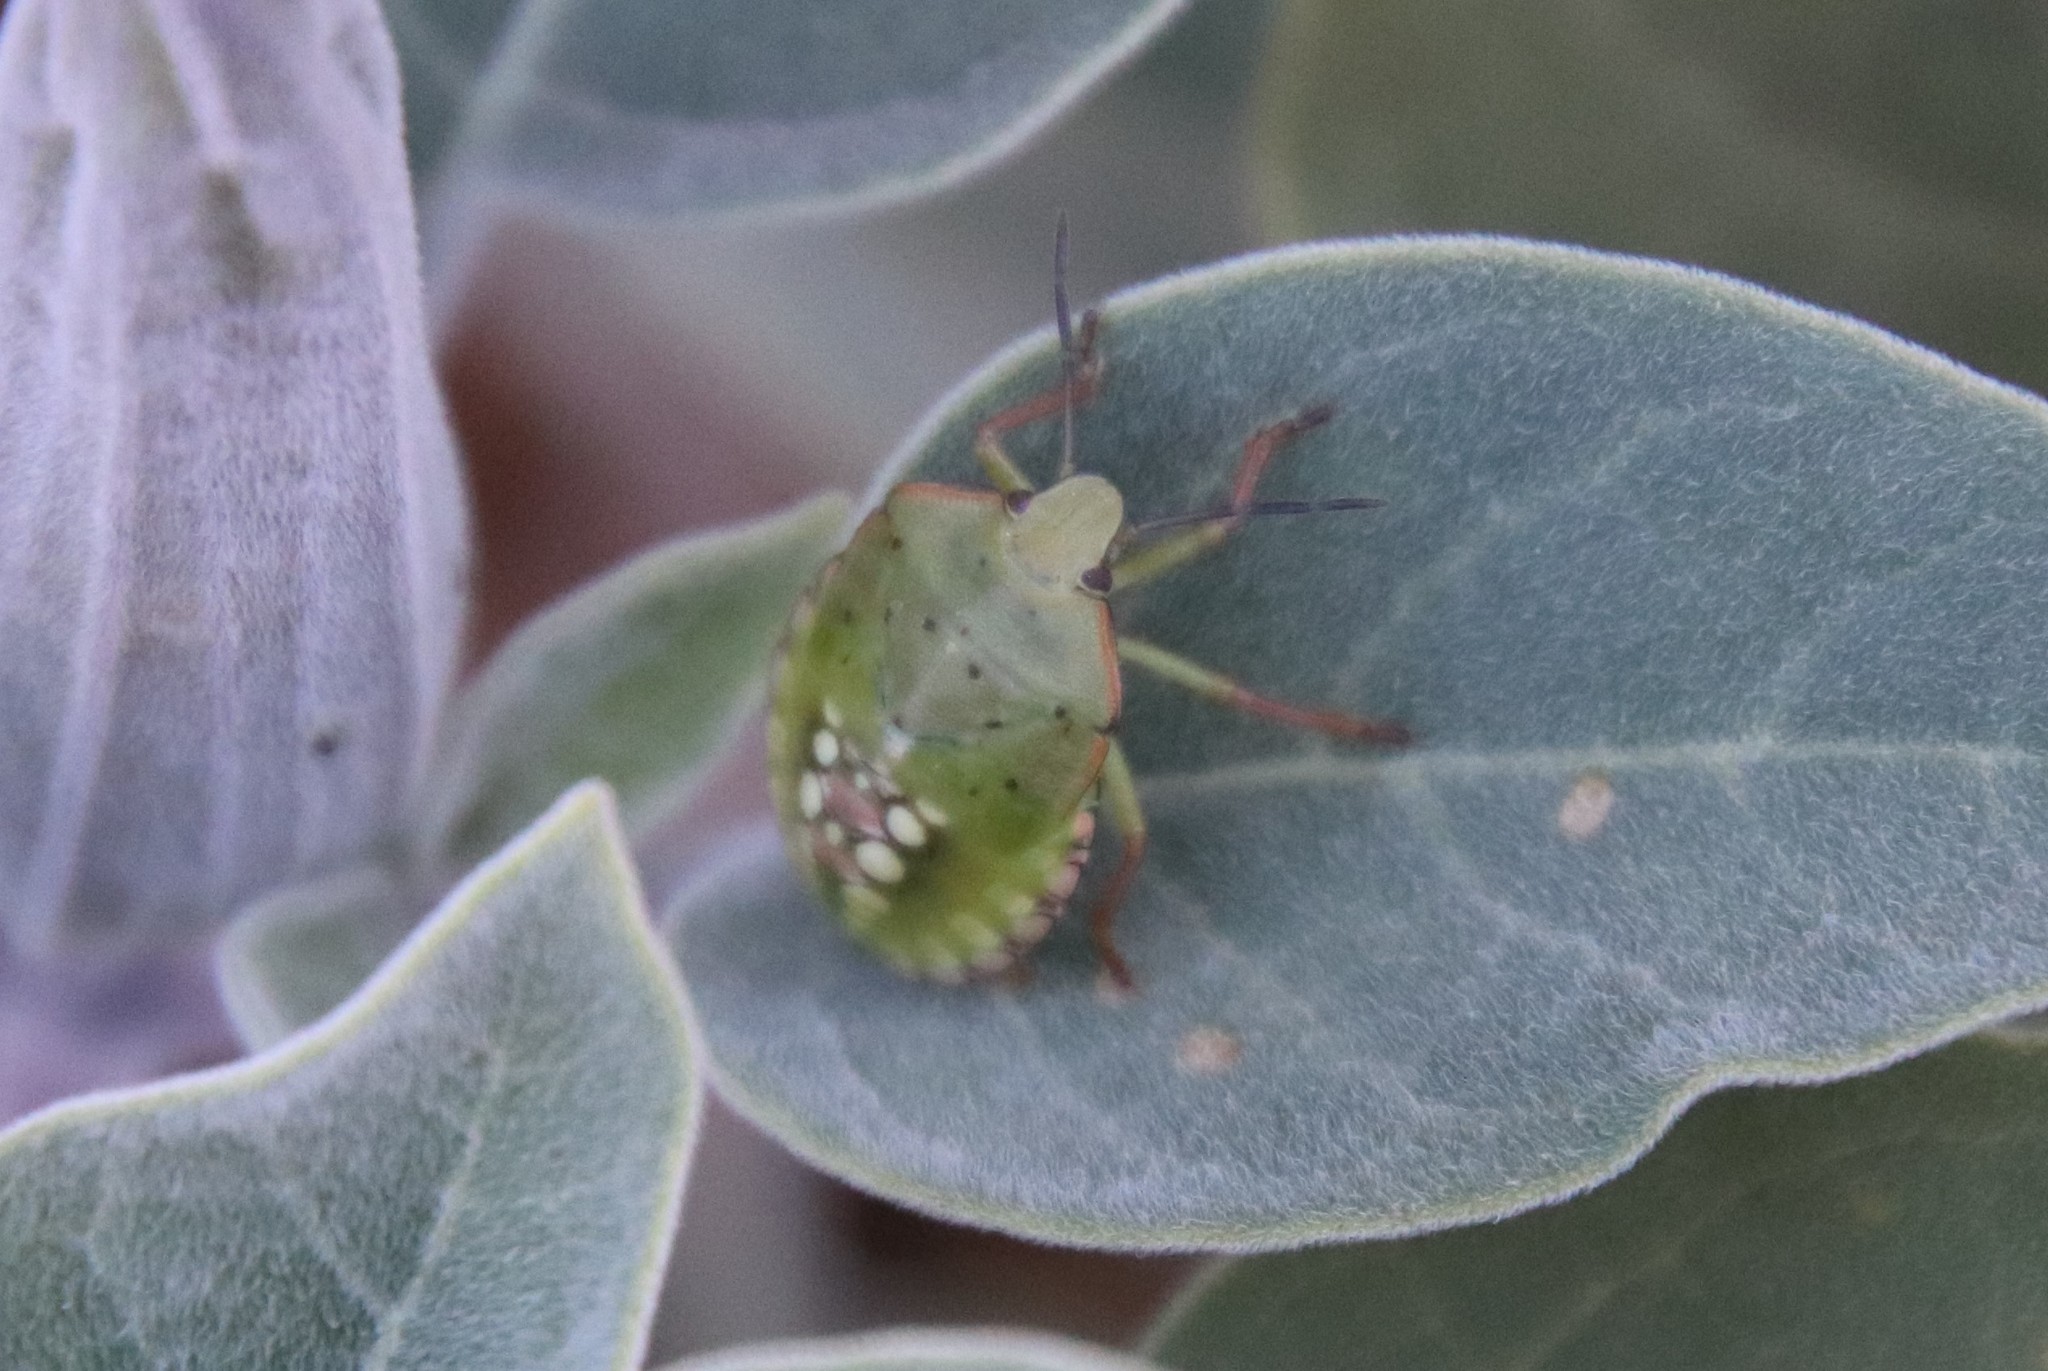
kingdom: Animalia
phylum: Arthropoda
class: Insecta
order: Hemiptera
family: Pentatomidae
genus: Nezara
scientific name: Nezara viridula
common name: Southern green stink bug
